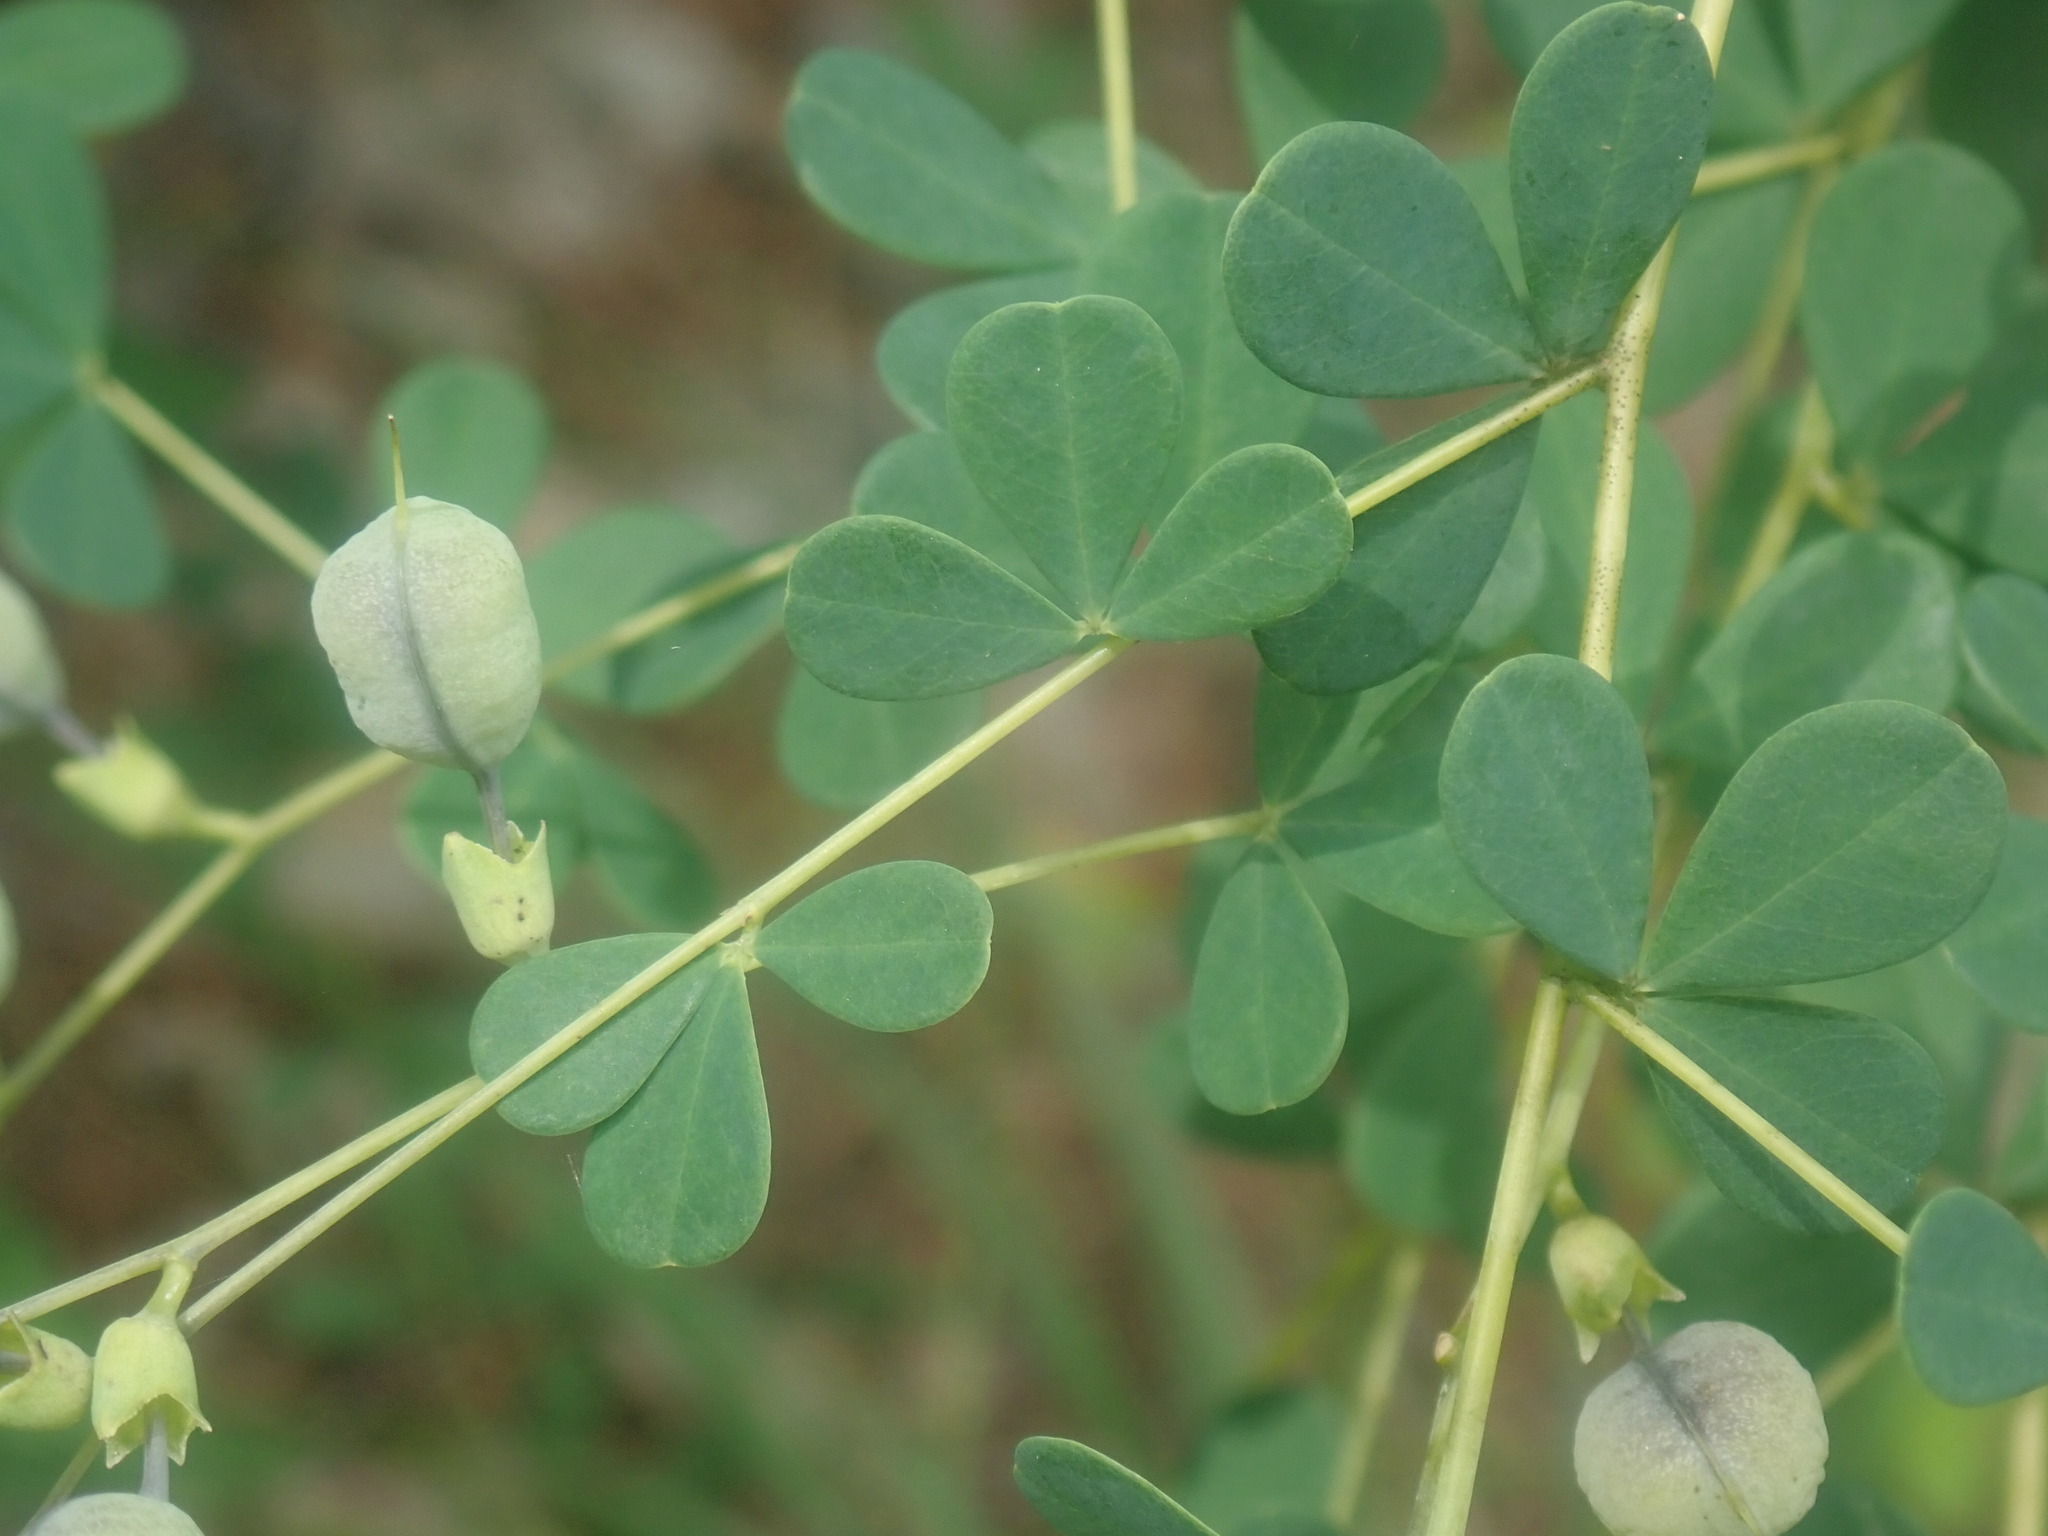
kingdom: Plantae
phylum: Tracheophyta
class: Magnoliopsida
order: Fabales
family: Fabaceae
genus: Baptisia
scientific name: Baptisia tinctoria
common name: Wild indigo
